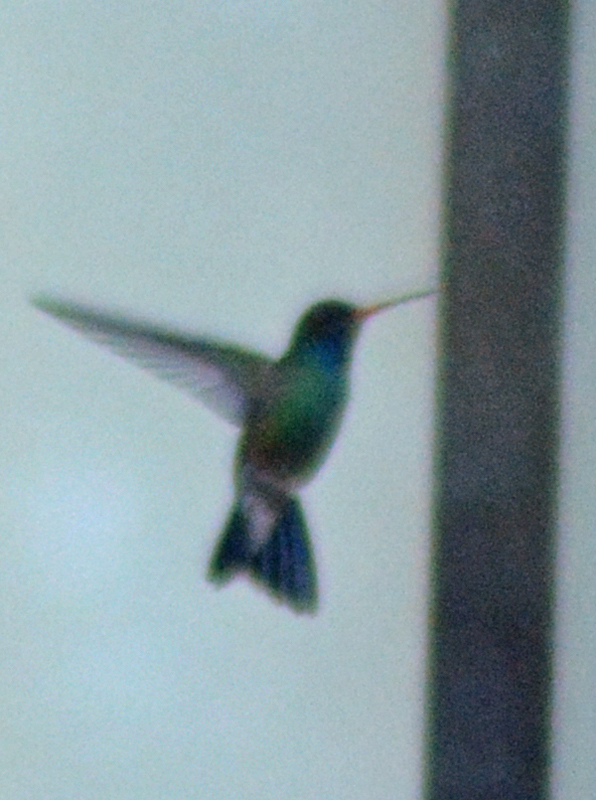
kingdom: Animalia
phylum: Chordata
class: Aves
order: Apodiformes
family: Trochilidae
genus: Cynanthus
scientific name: Cynanthus latirostris
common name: Broad-billed hummingbird
